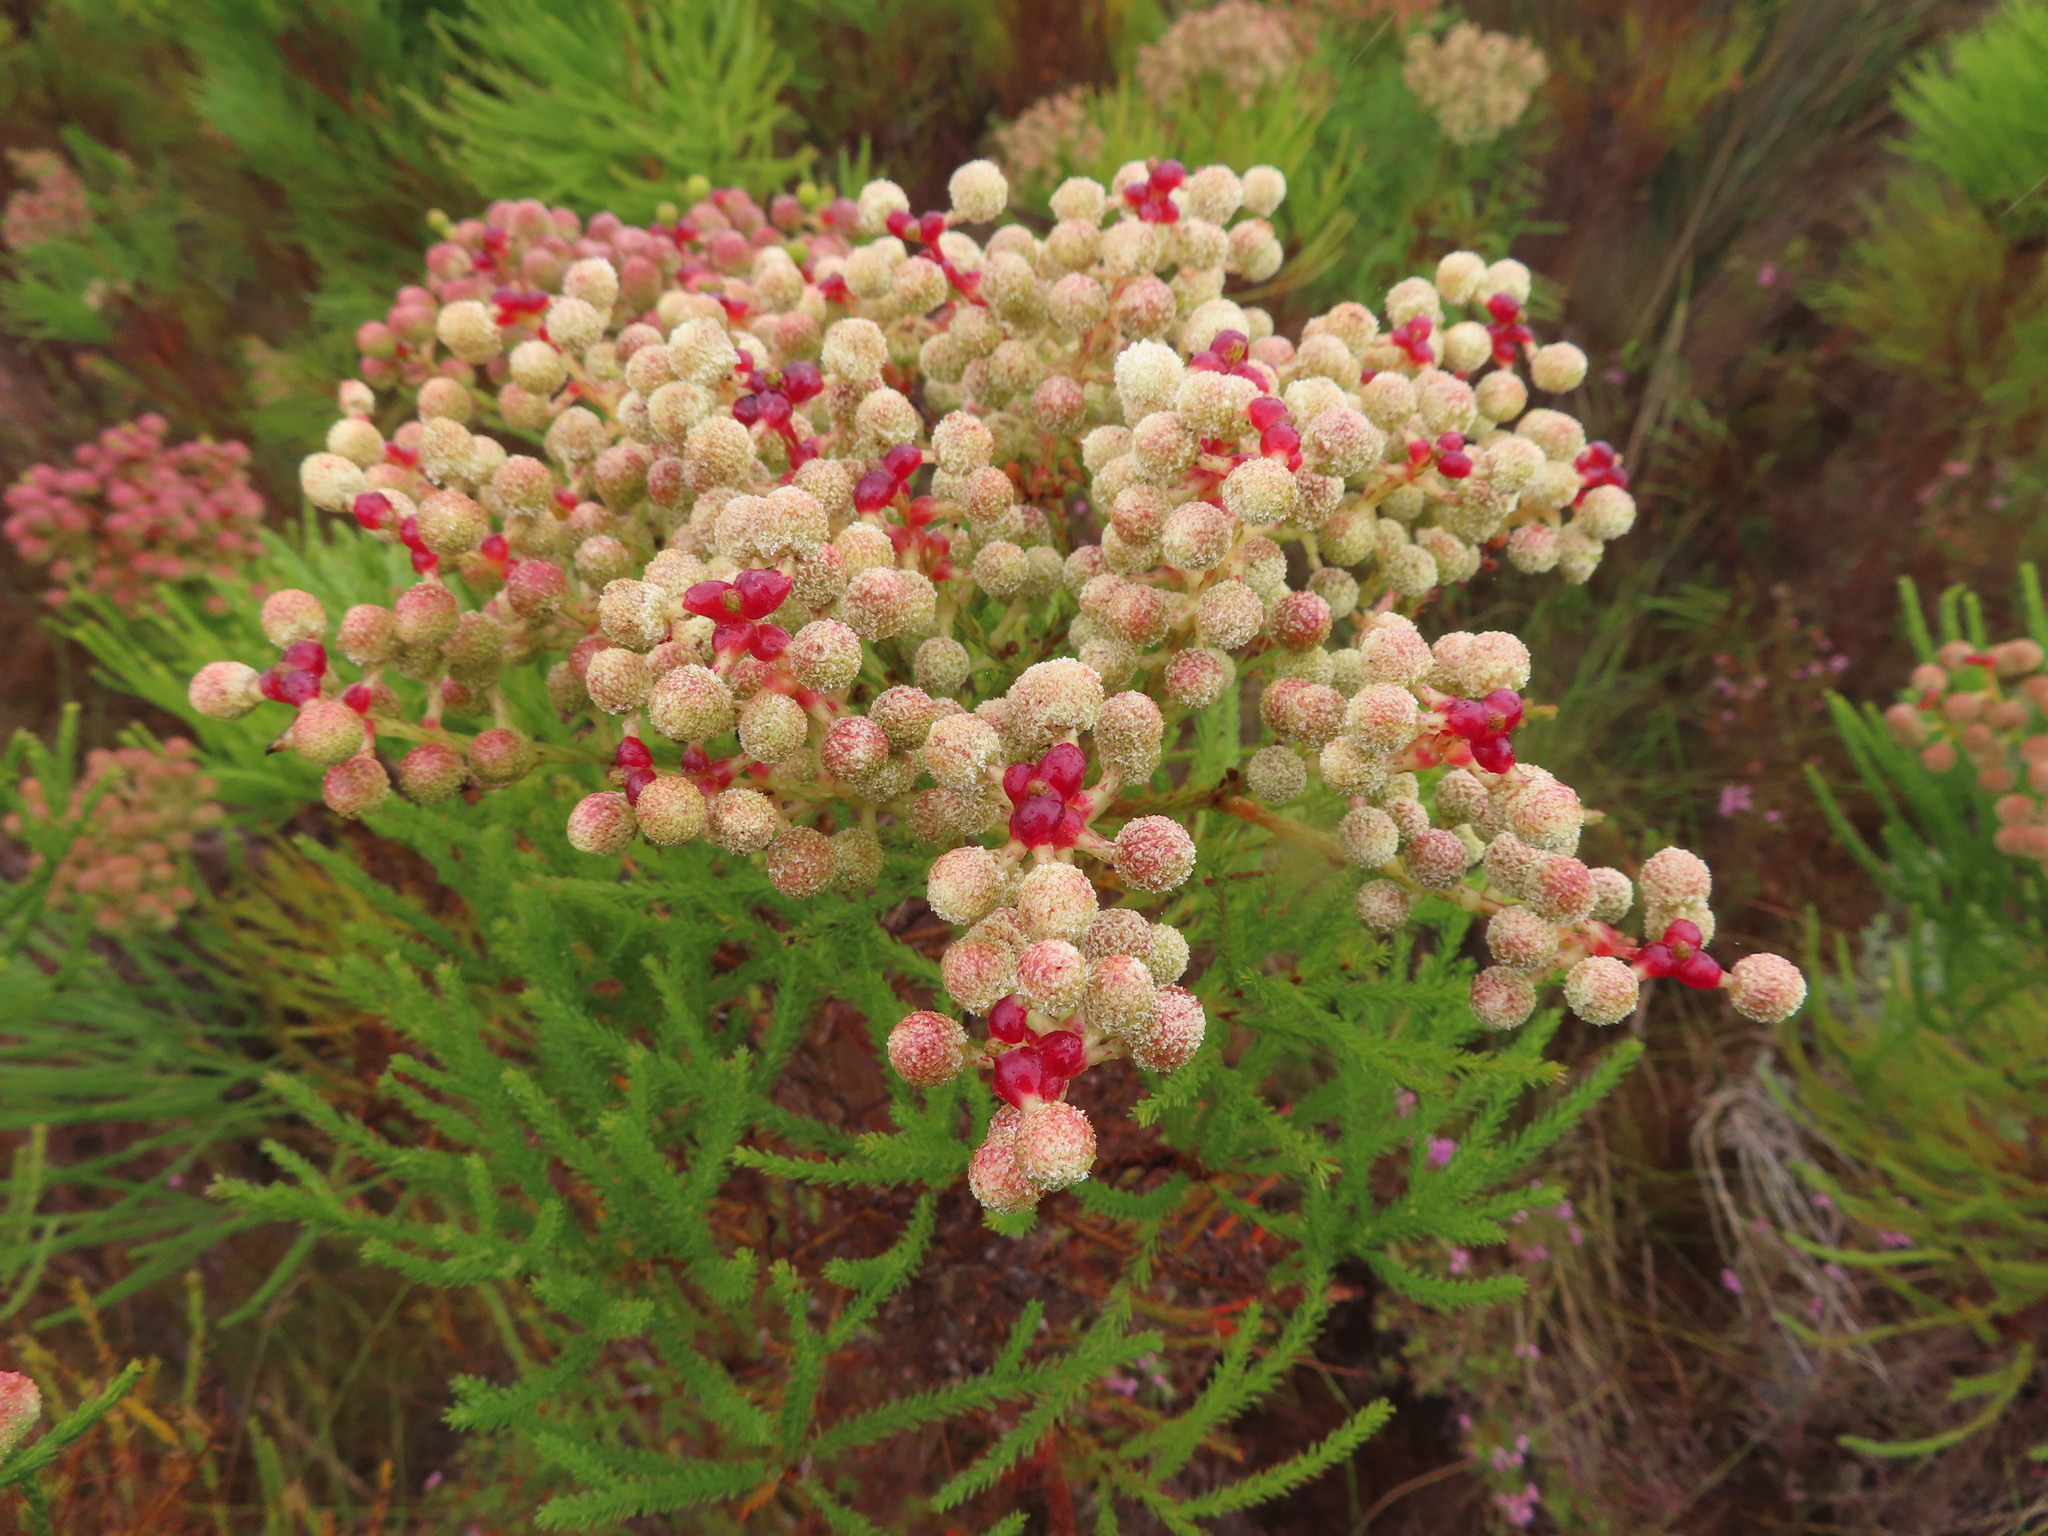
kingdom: Plantae
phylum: Tracheophyta
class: Magnoliopsida
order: Bruniales
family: Bruniaceae
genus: Berzelia
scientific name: Berzelia lanuginosa
